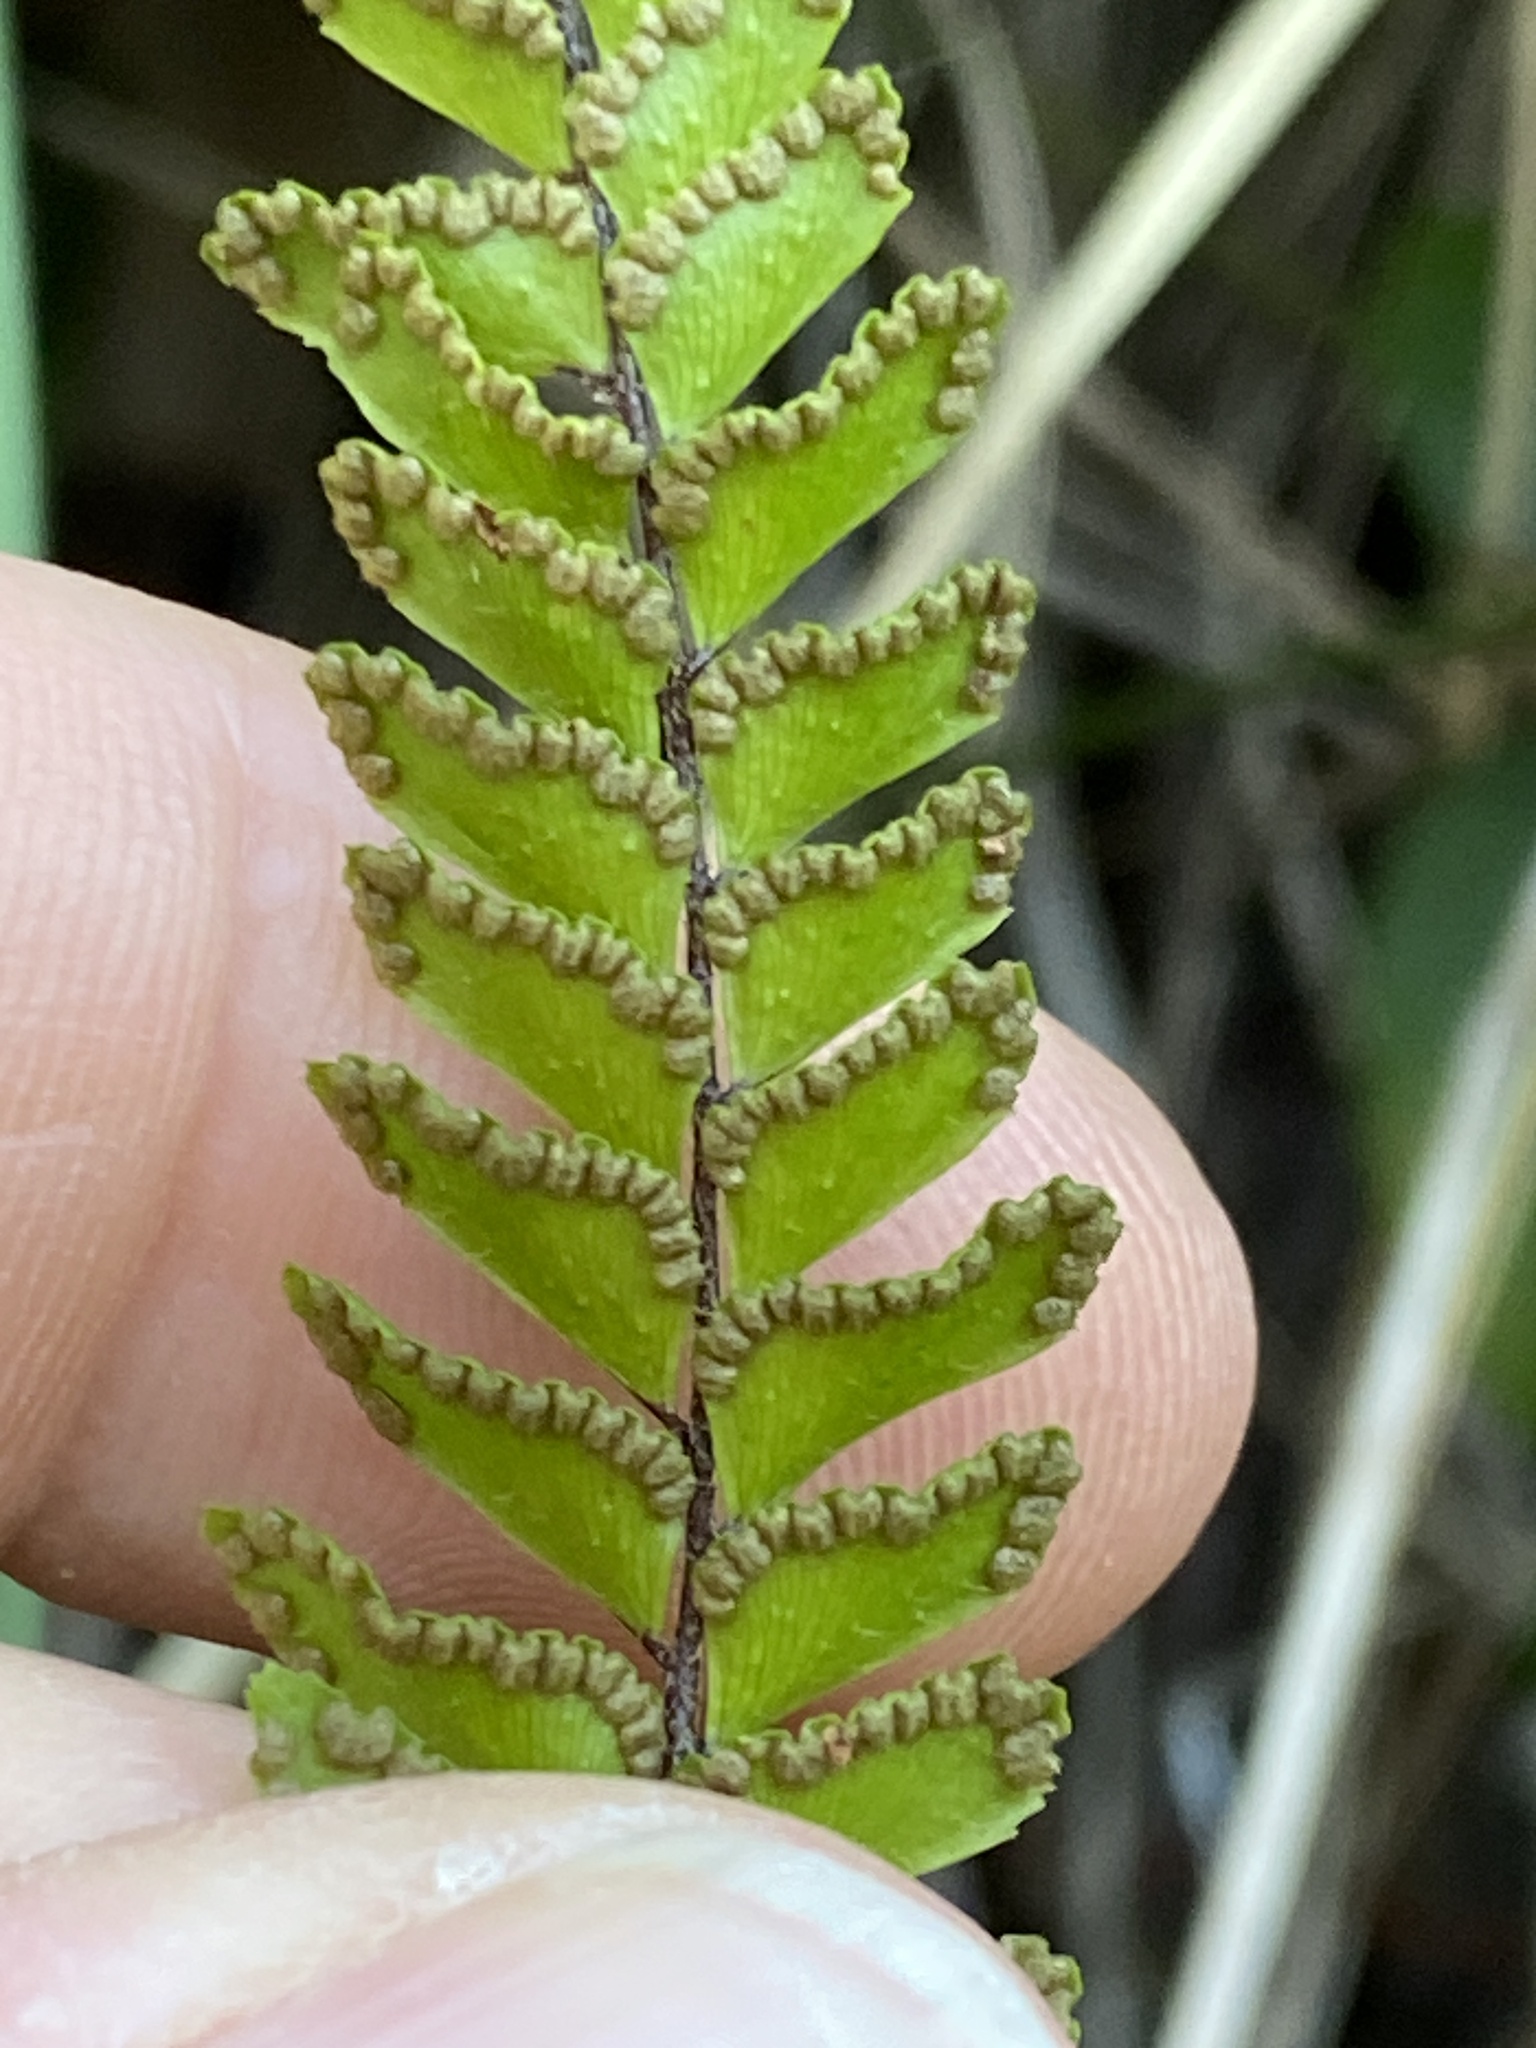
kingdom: Plantae
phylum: Tracheophyta
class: Polypodiopsida
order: Polypodiales
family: Pteridaceae
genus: Adiantum
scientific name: Adiantum hispidulum
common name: Rough maidenhair
